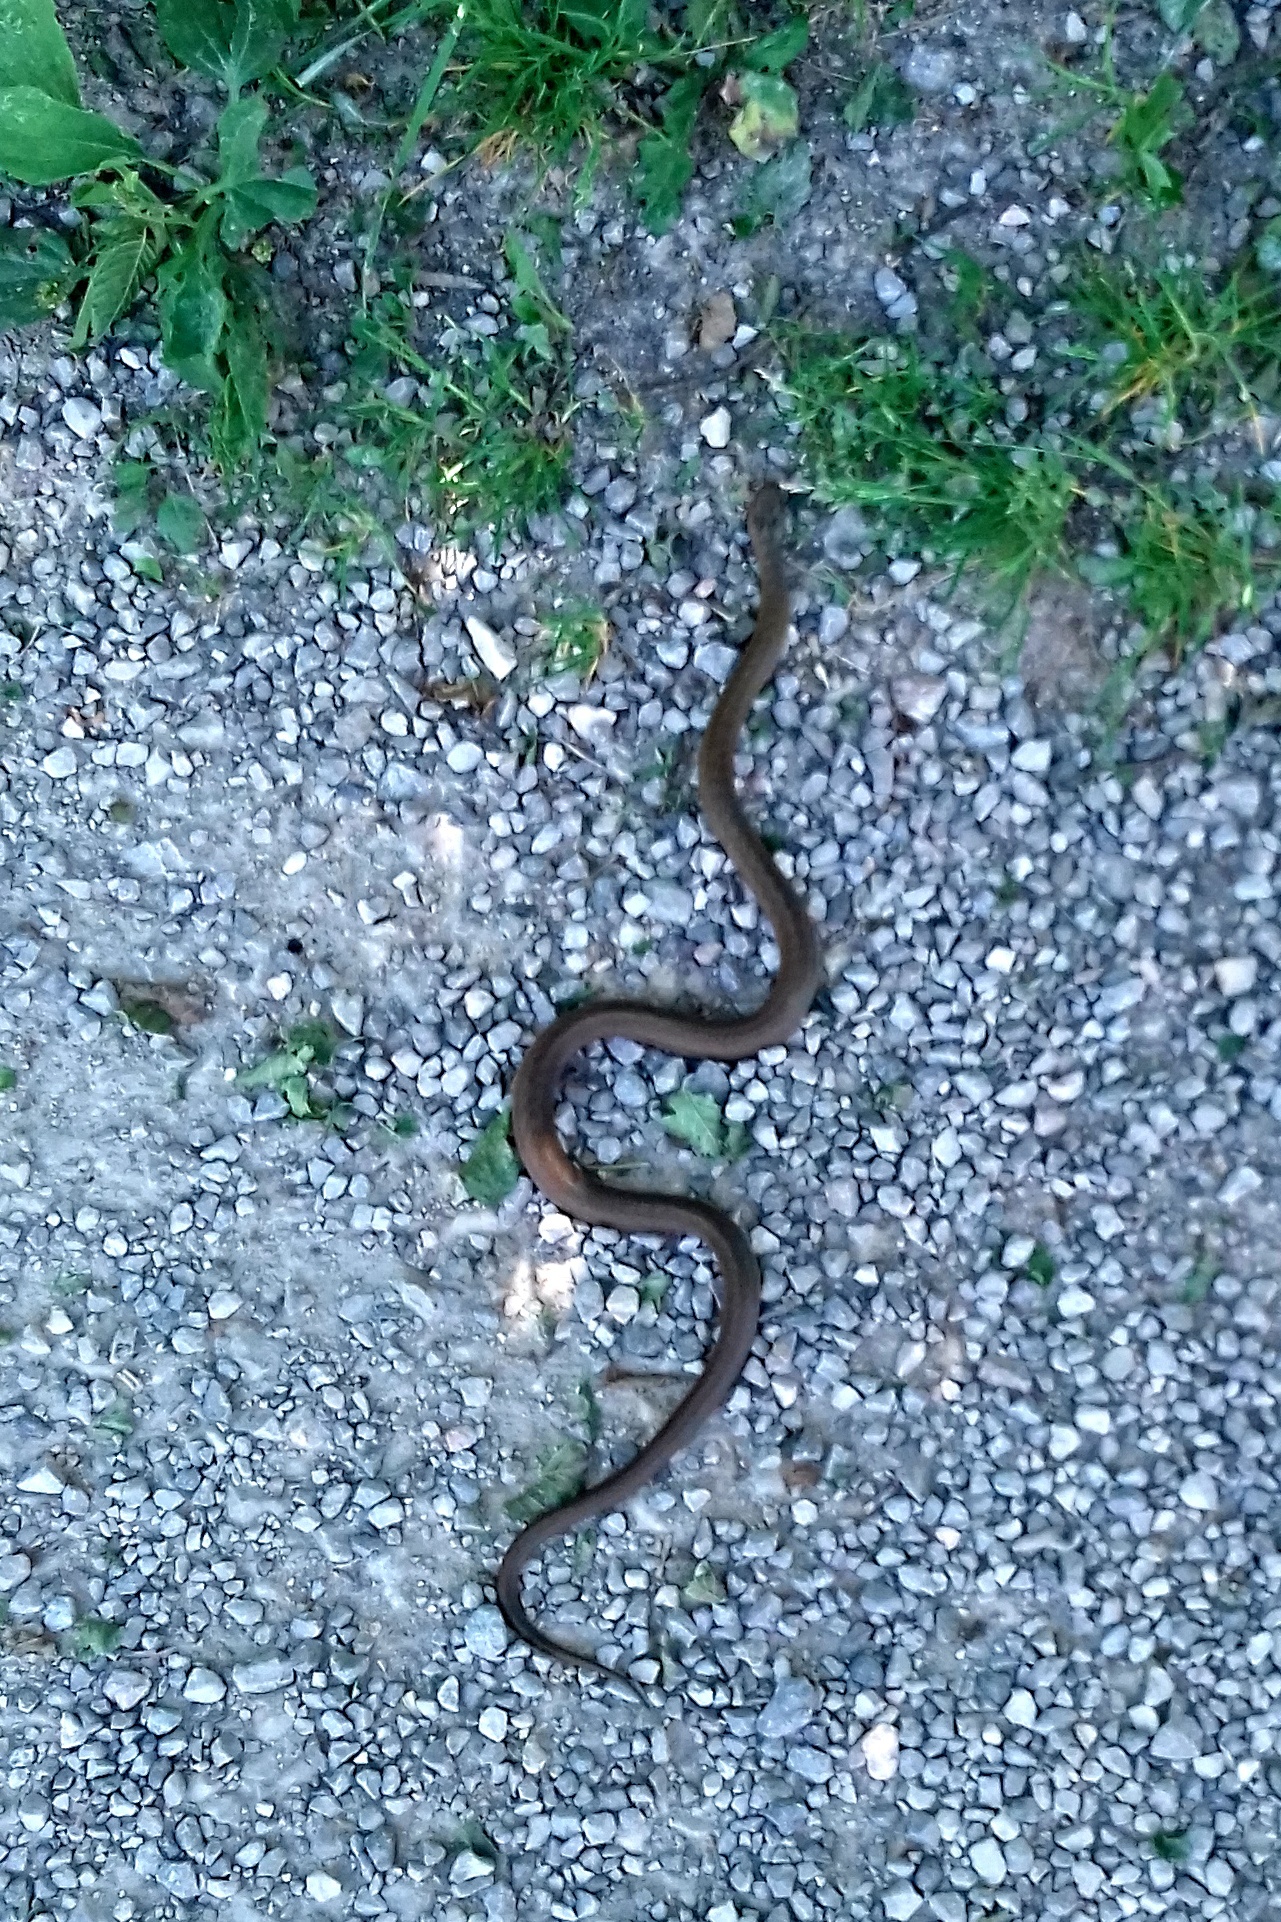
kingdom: Animalia
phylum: Chordata
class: Squamata
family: Colubridae
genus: Coronella
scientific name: Coronella austriaca
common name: Smooth snake
